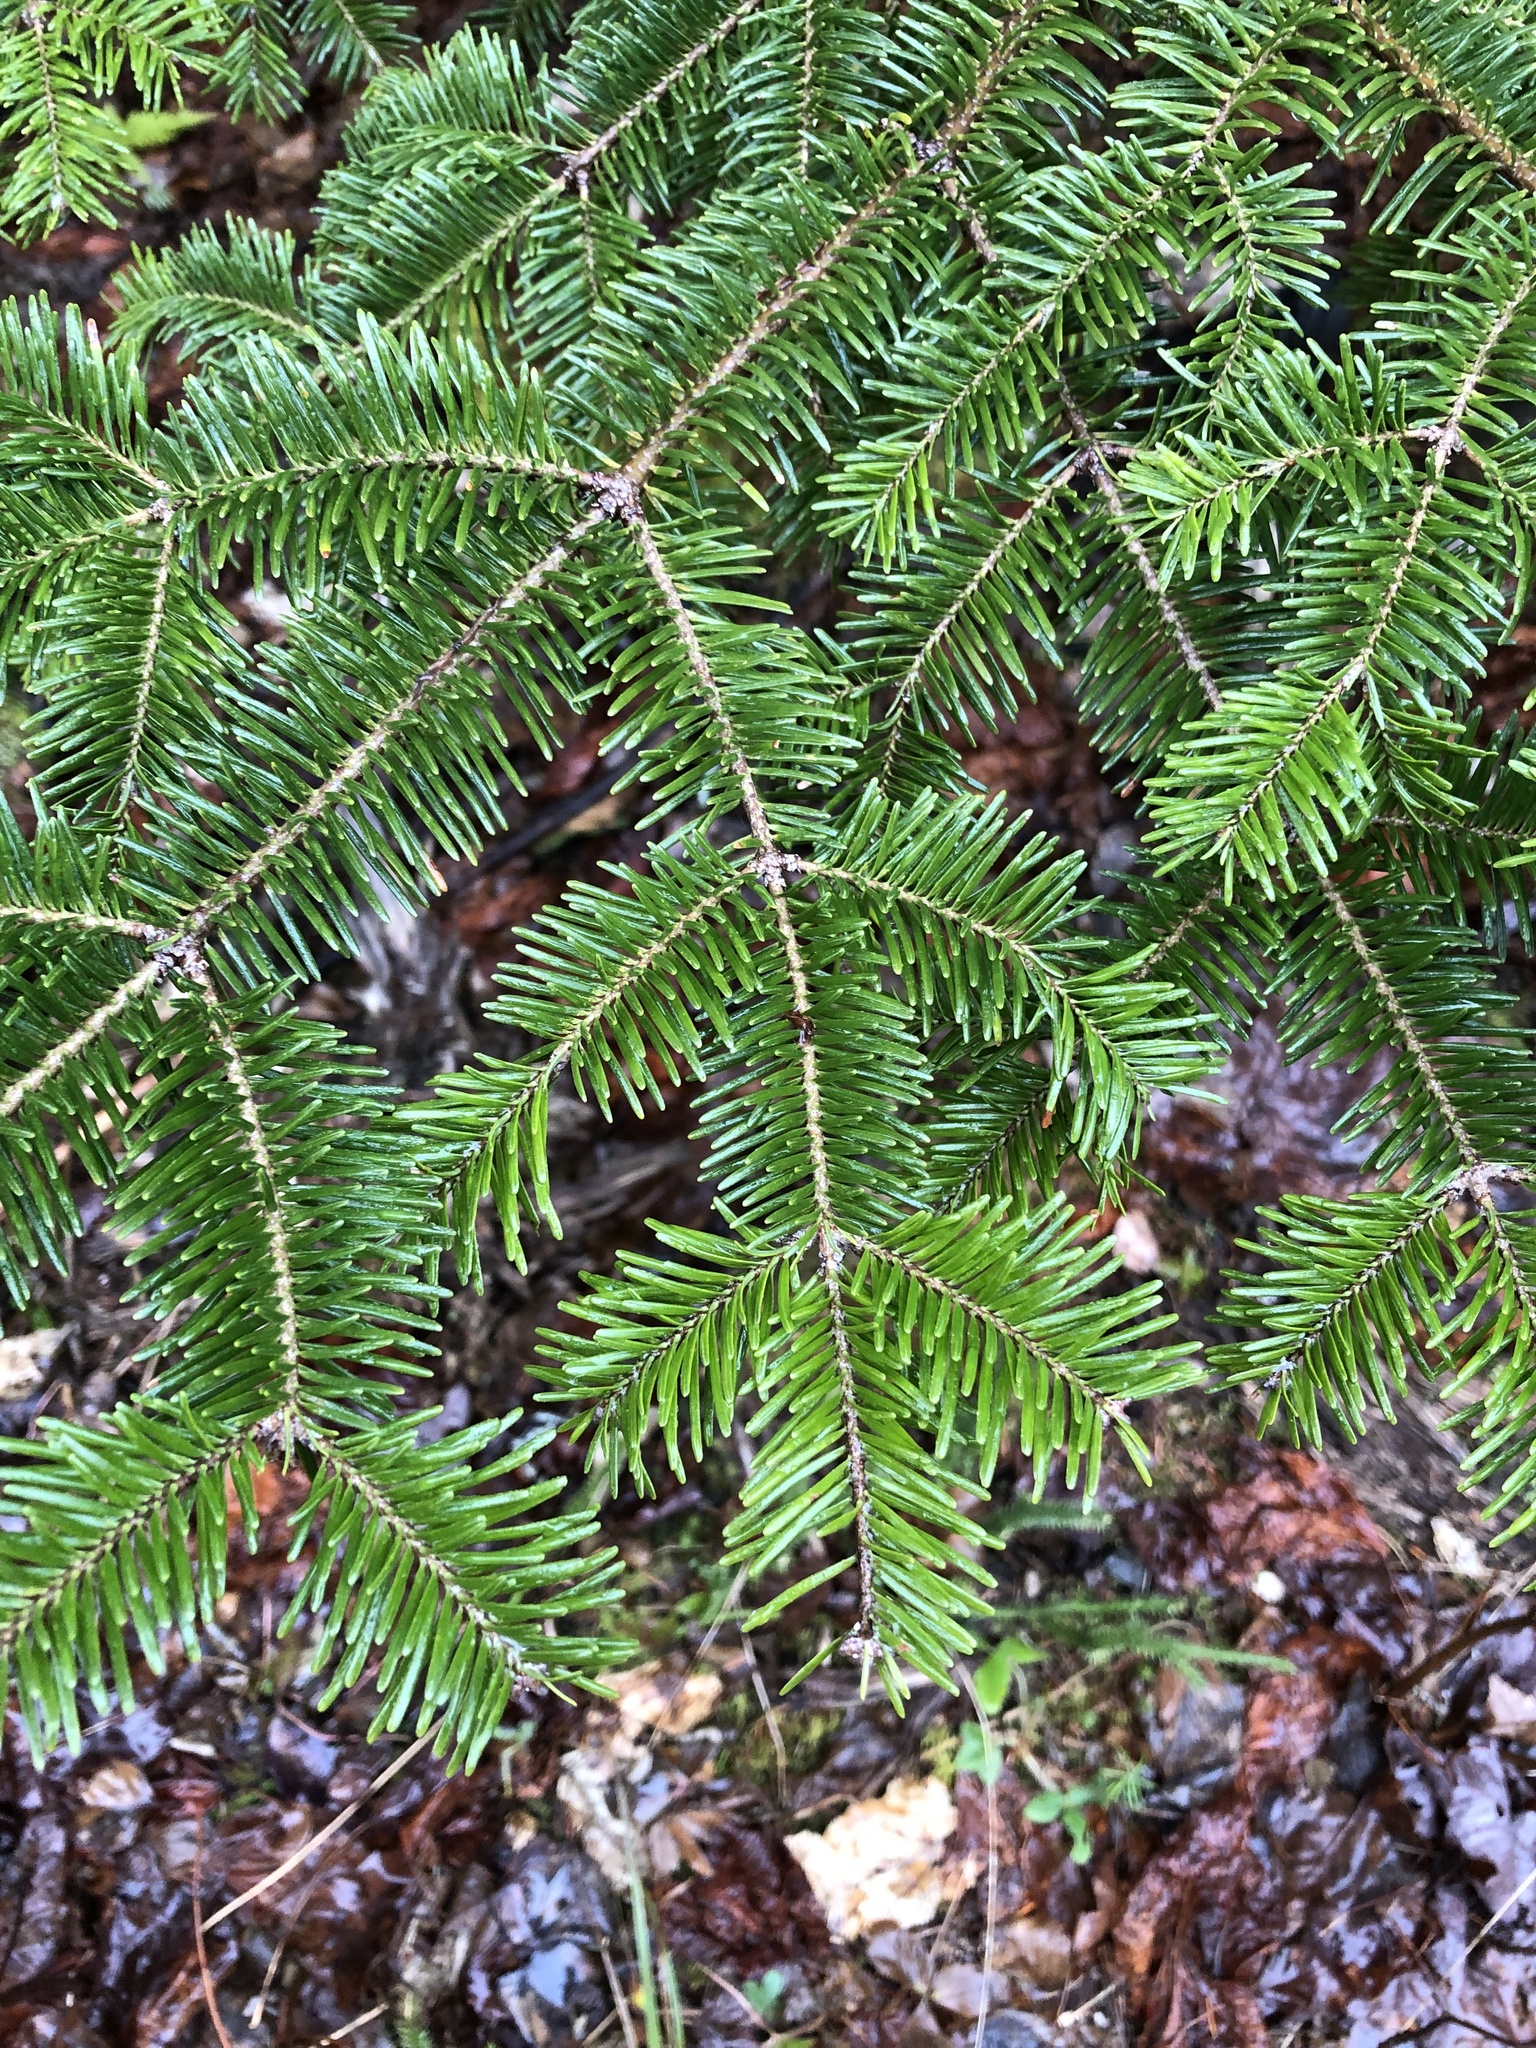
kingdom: Plantae
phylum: Tracheophyta
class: Pinopsida
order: Pinales
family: Pinaceae
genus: Abies
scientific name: Abies balsamea
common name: Balsam fir
